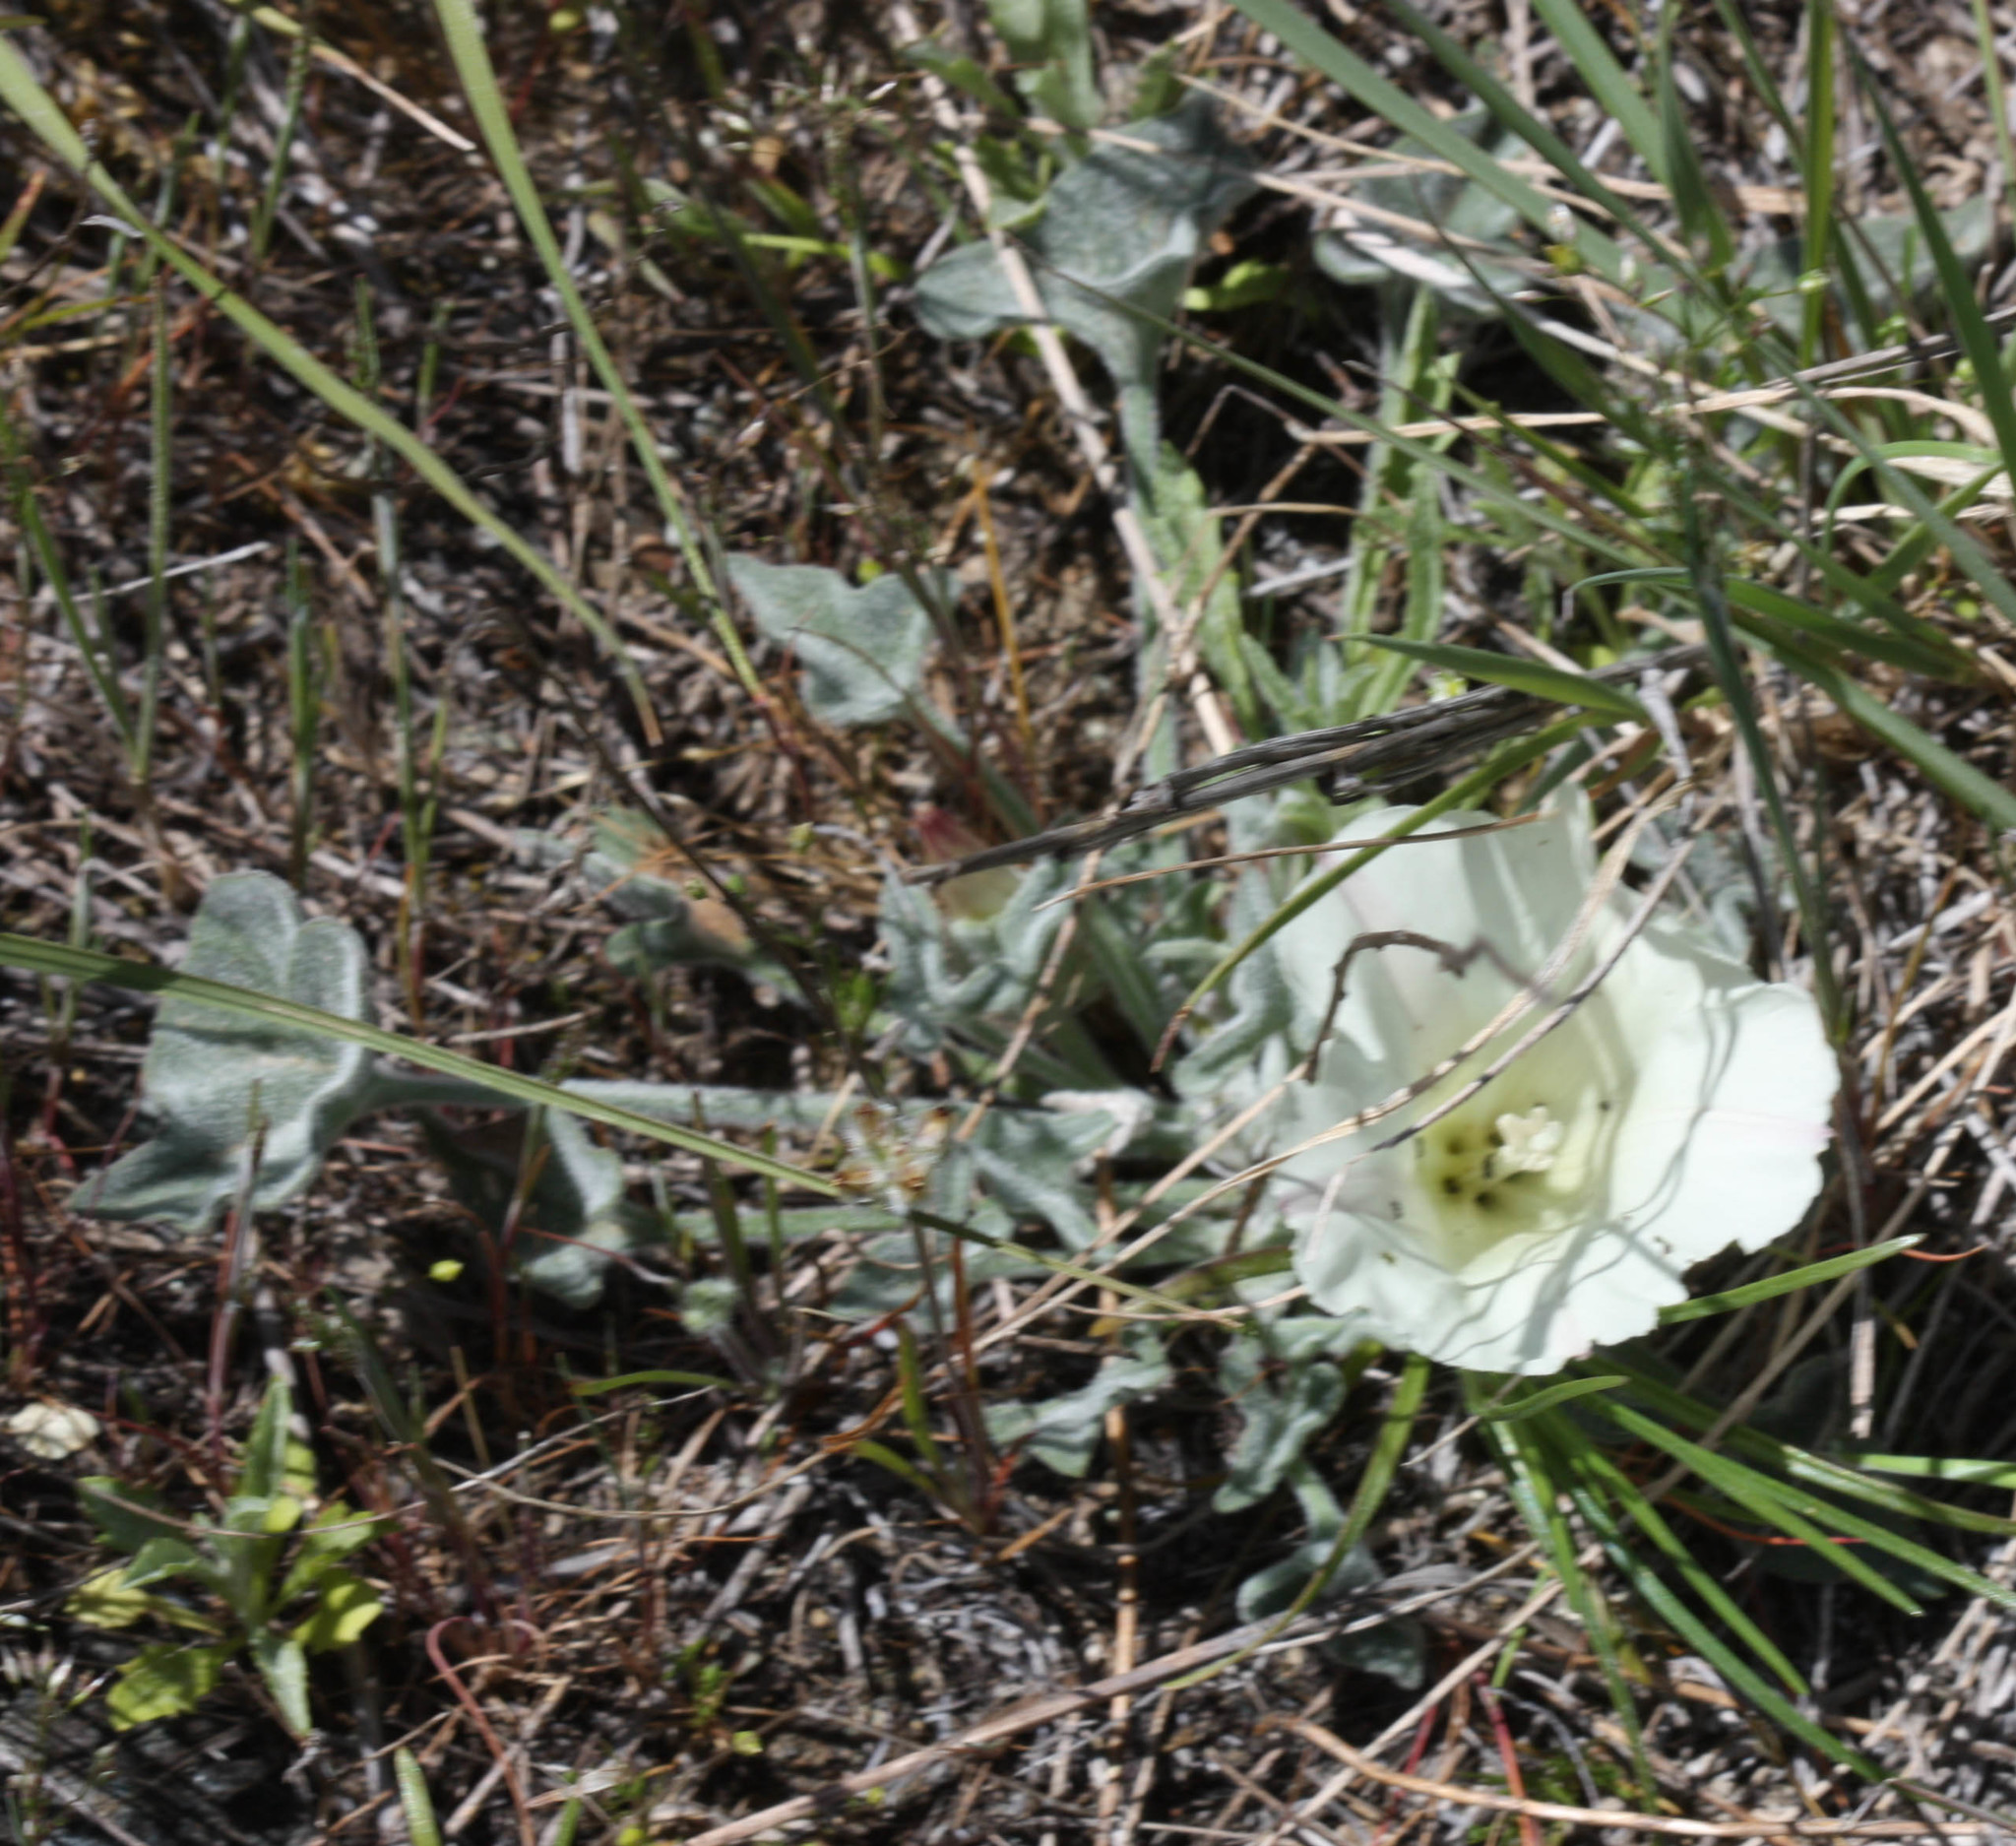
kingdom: Plantae
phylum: Tracheophyta
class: Magnoliopsida
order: Solanales
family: Convolvulaceae
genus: Calystegia
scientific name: Calystegia collina
